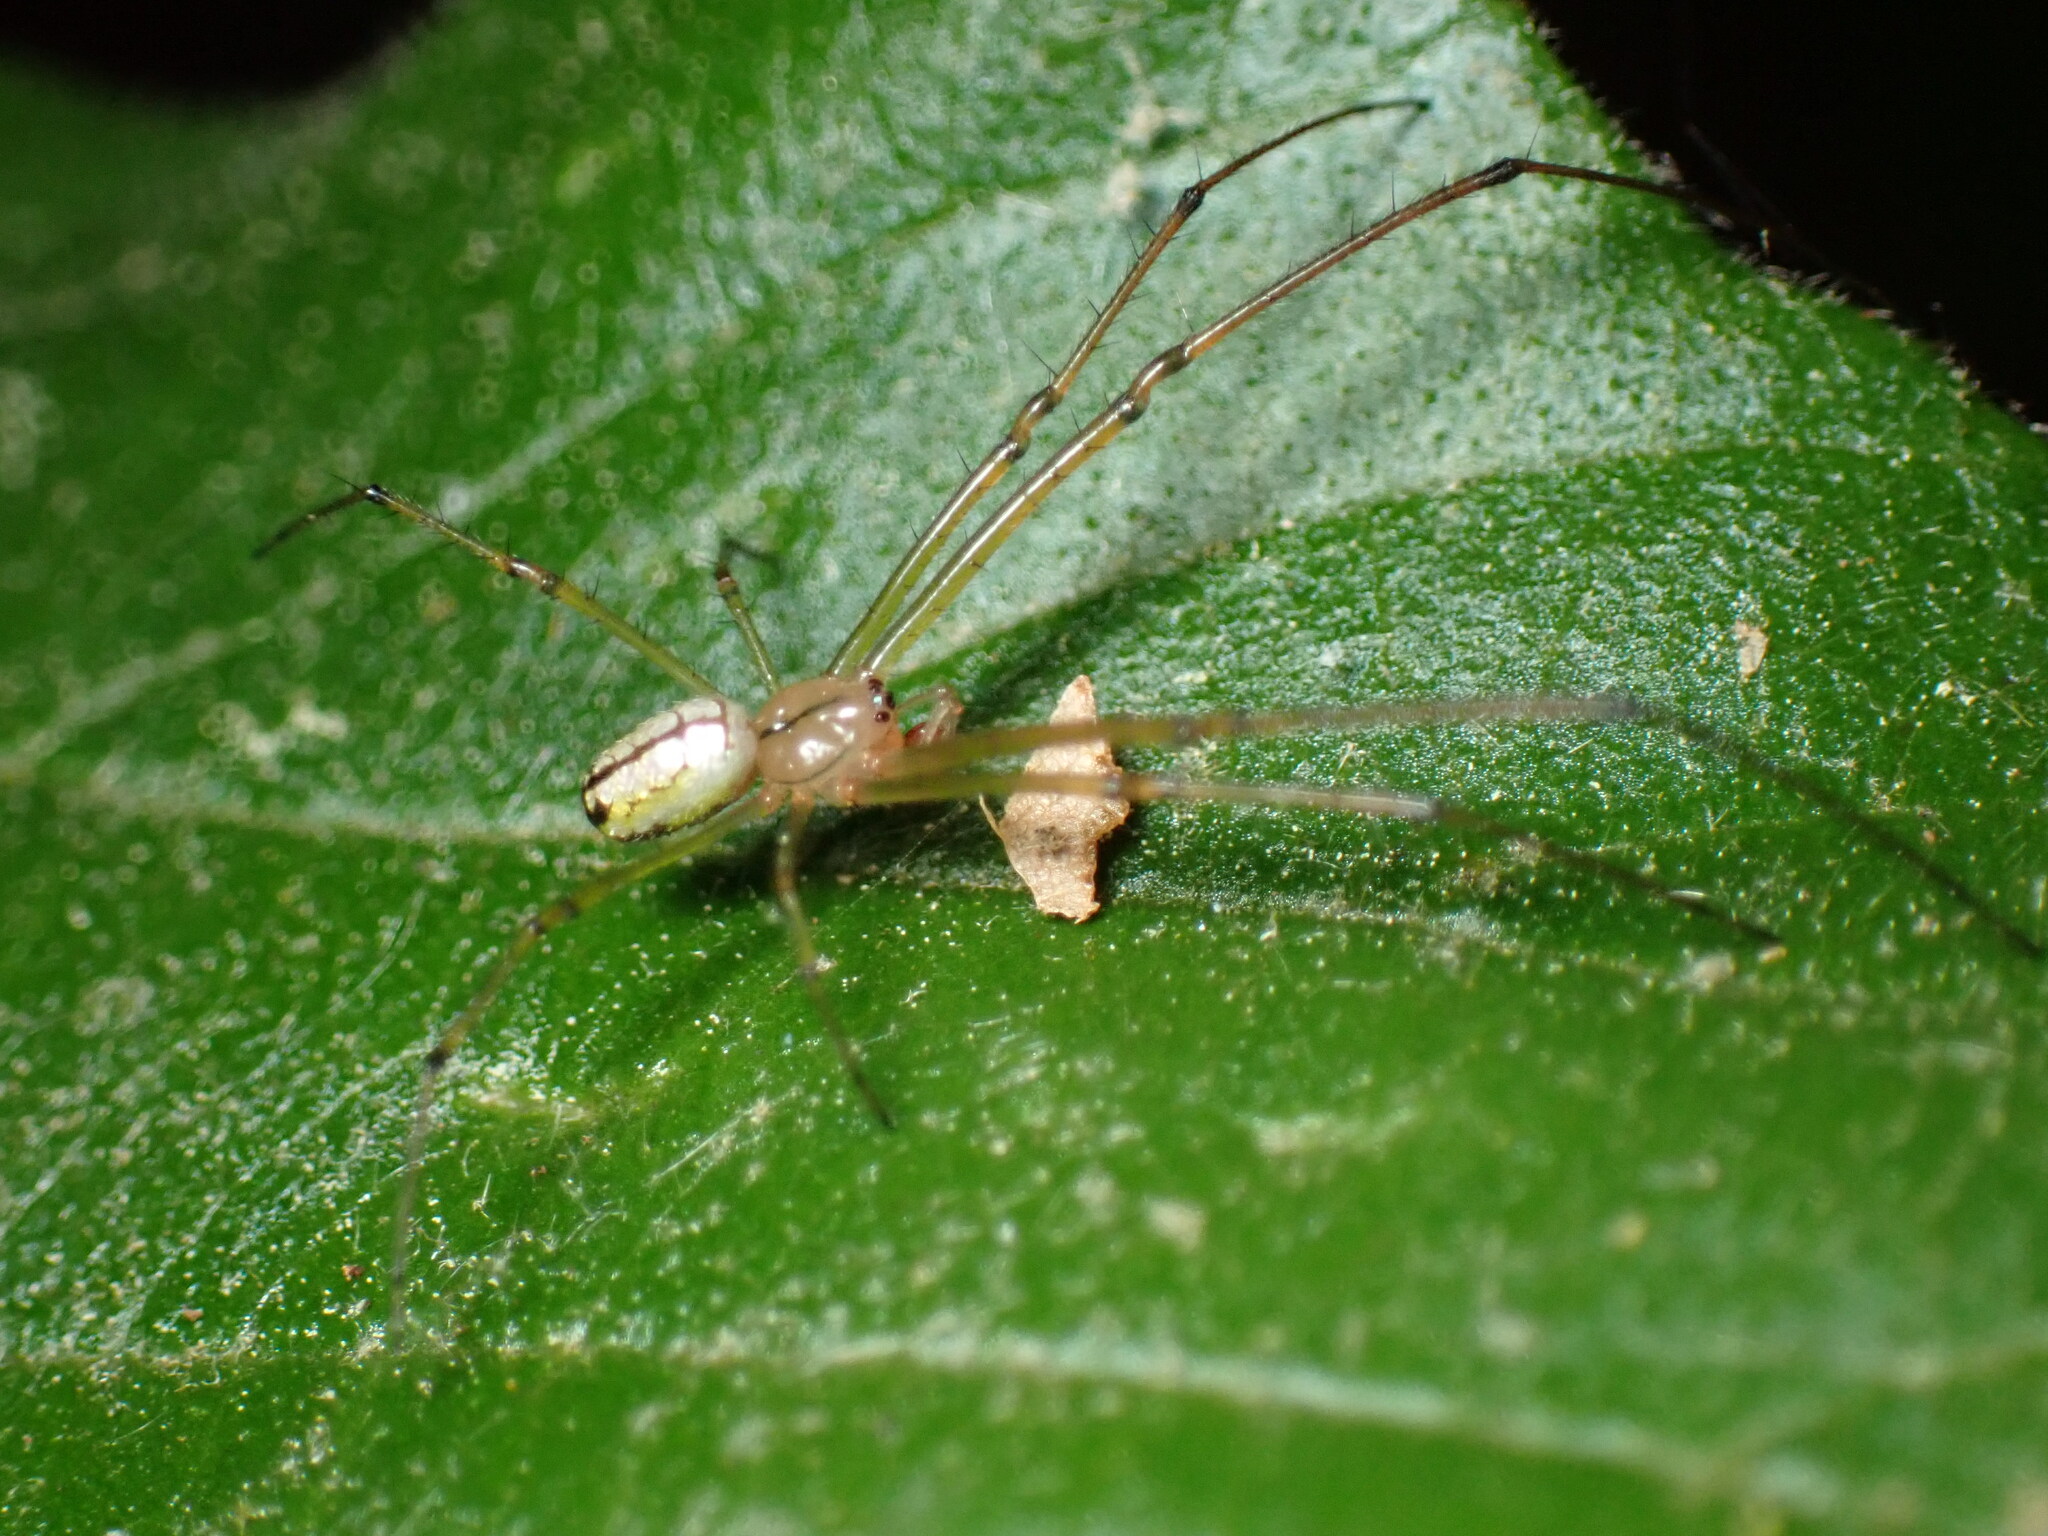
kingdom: Animalia
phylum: Arthropoda
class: Arachnida
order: Araneae
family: Tetragnathidae
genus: Leucauge
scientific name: Leucauge venusta
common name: Longjawed orb weavers
